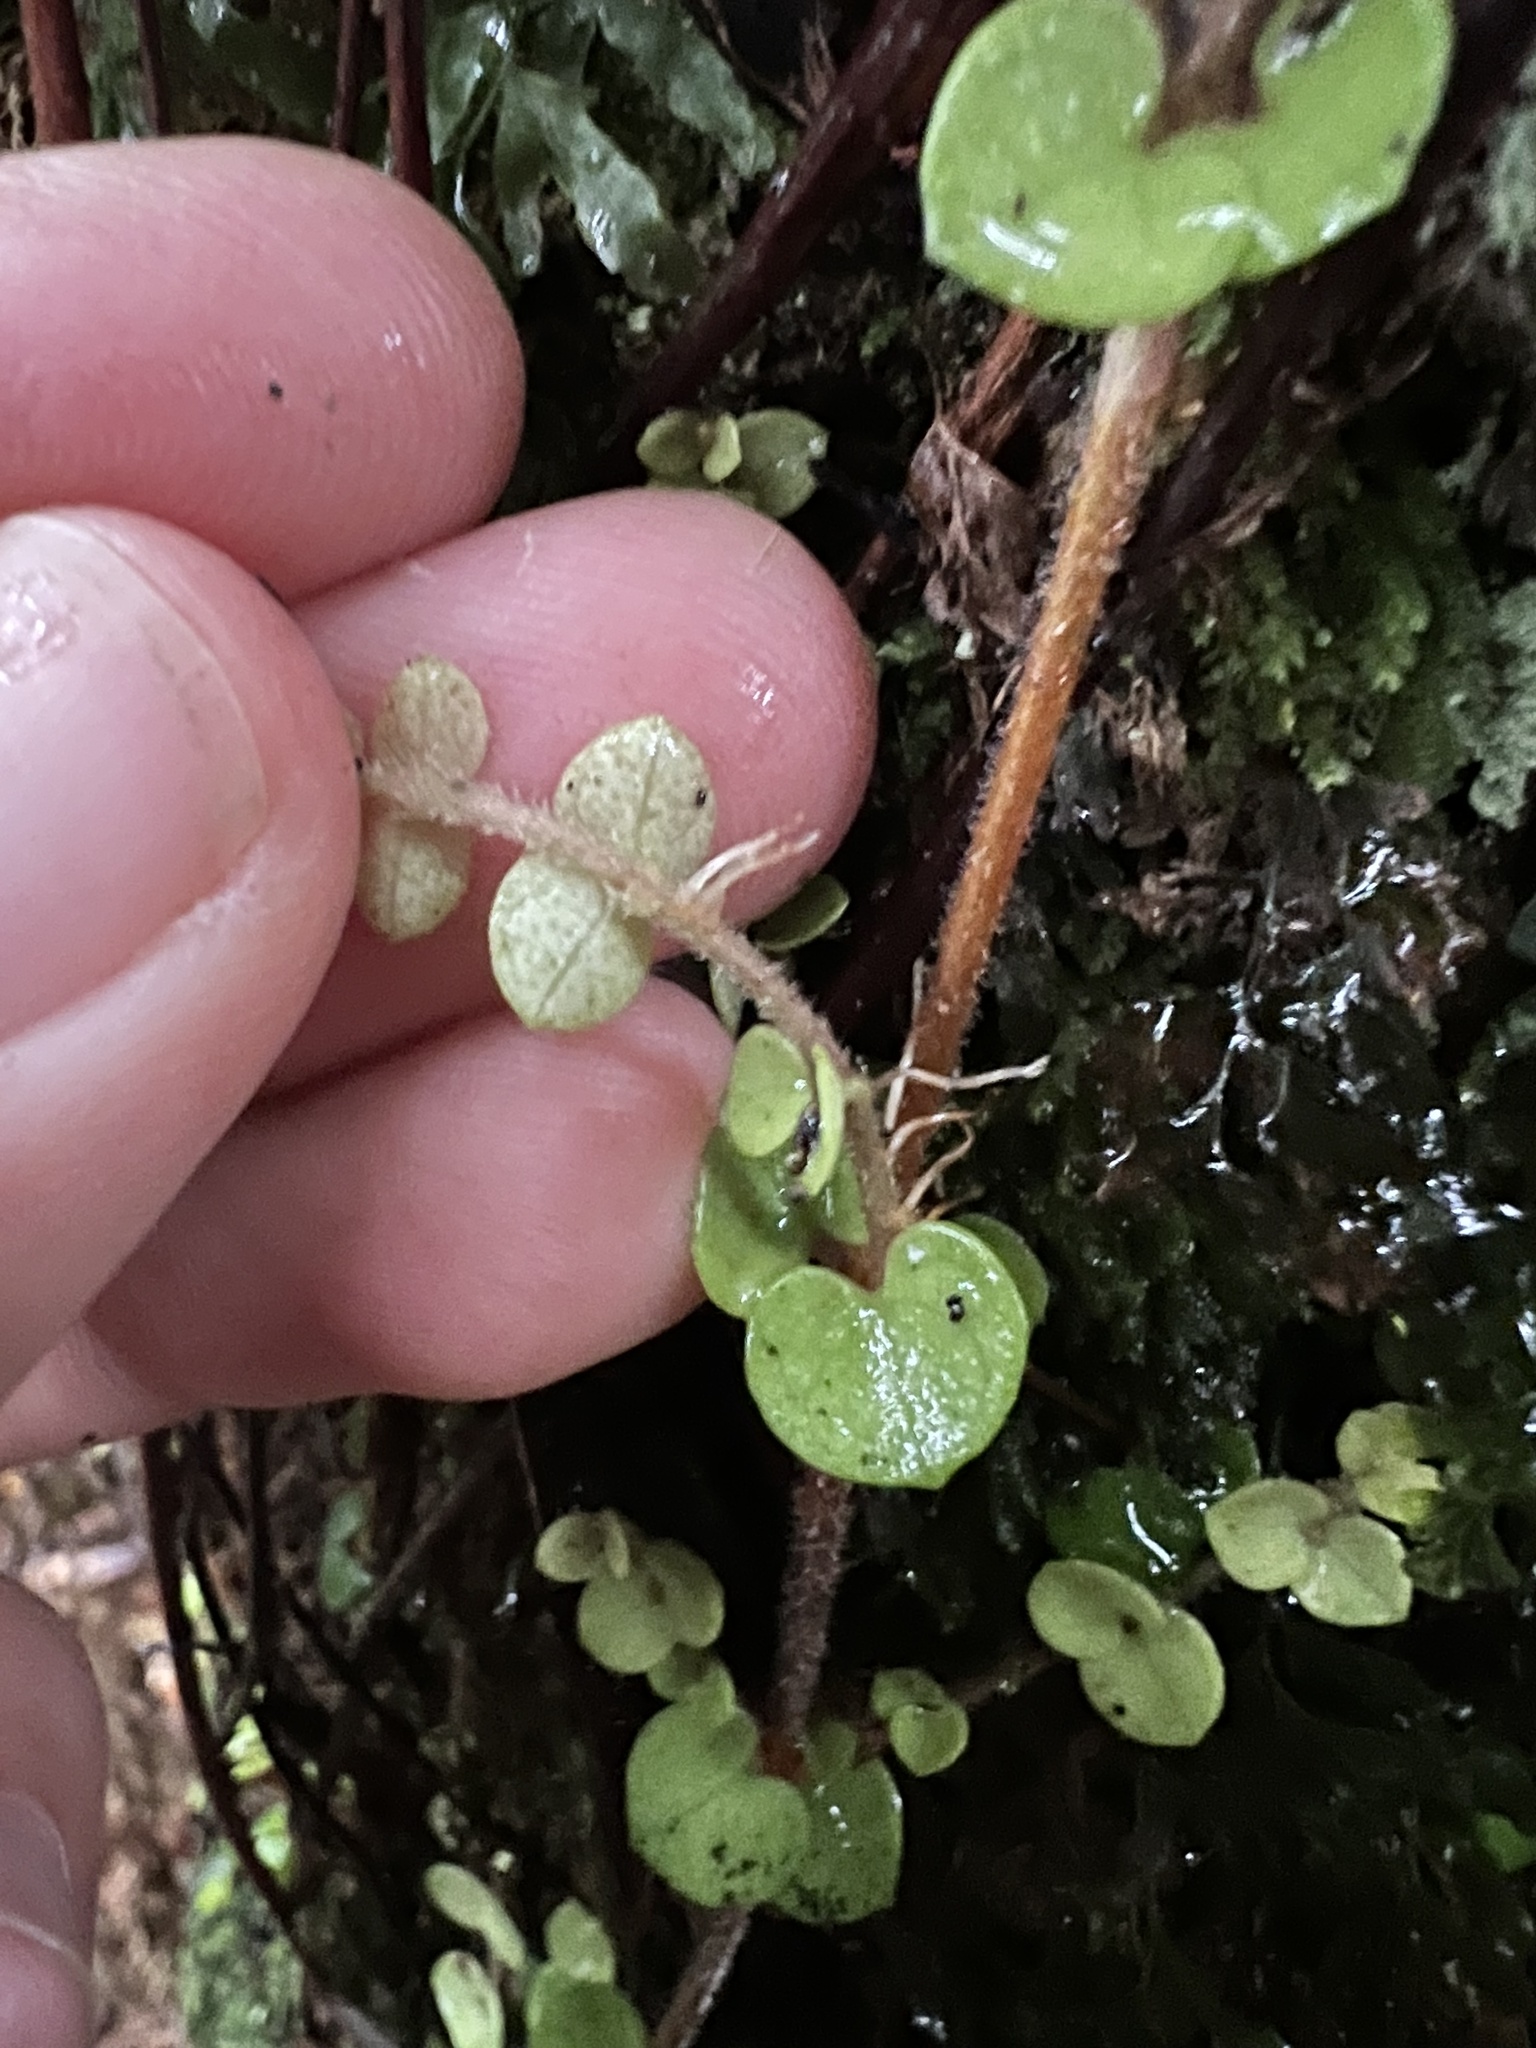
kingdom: Plantae
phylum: Tracheophyta
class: Magnoliopsida
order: Myrtales
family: Myrtaceae
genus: Metrosideros
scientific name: Metrosideros perforata
